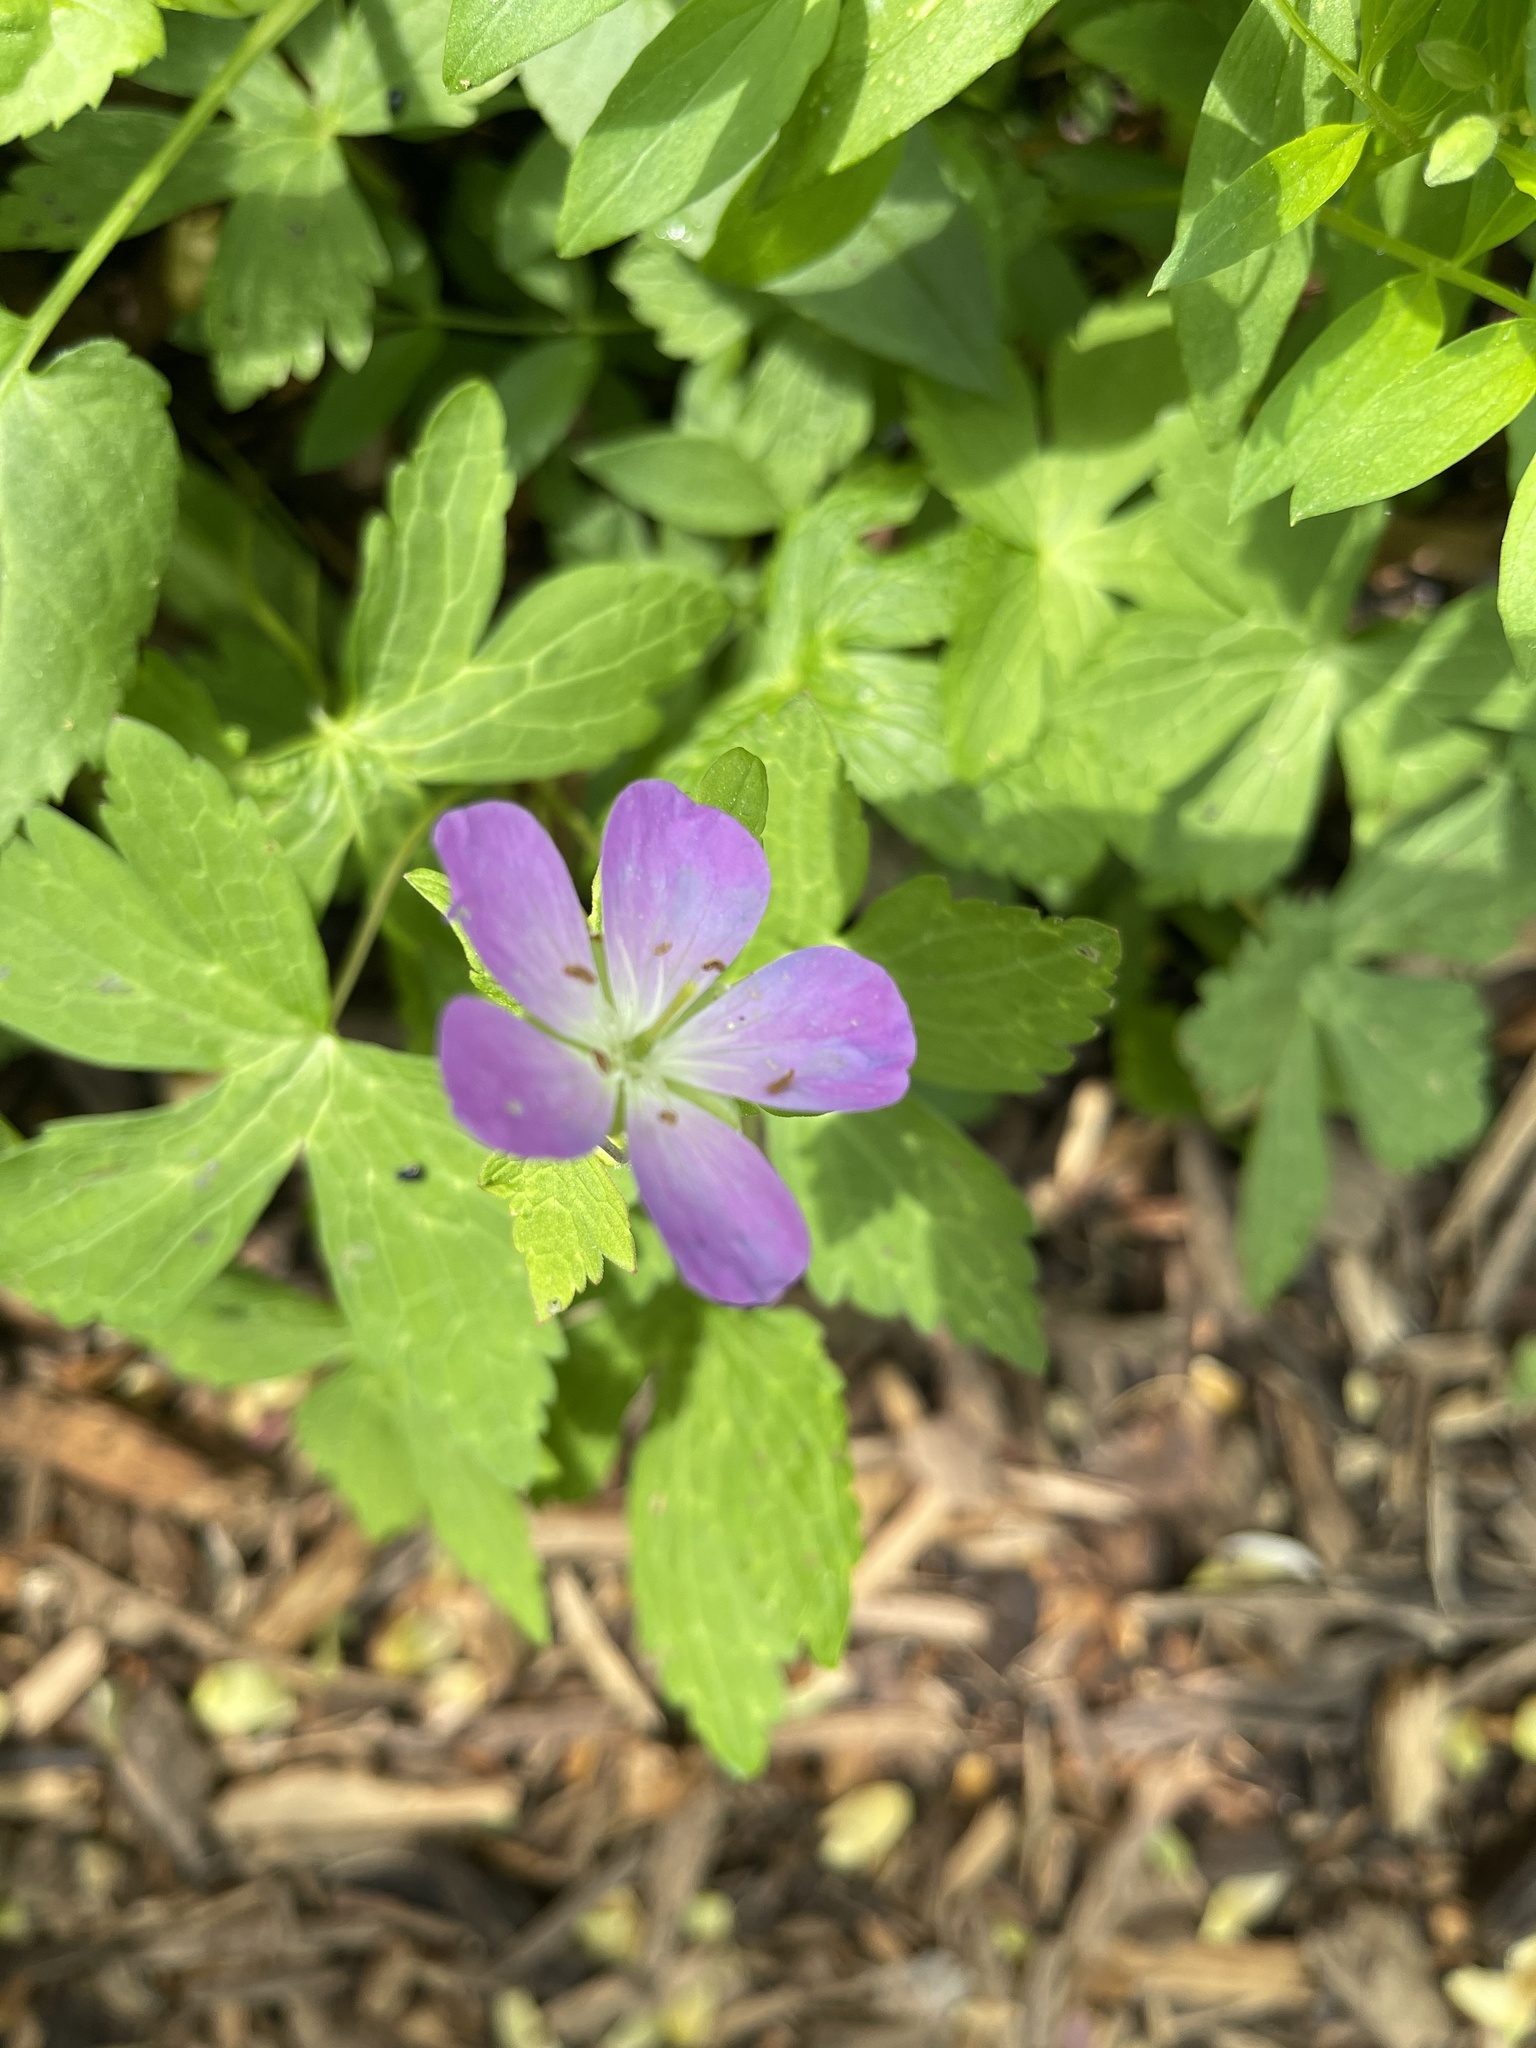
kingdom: Plantae
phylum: Tracheophyta
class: Magnoliopsida
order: Geraniales
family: Geraniaceae
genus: Geranium
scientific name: Geranium maculatum
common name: Spotted geranium
